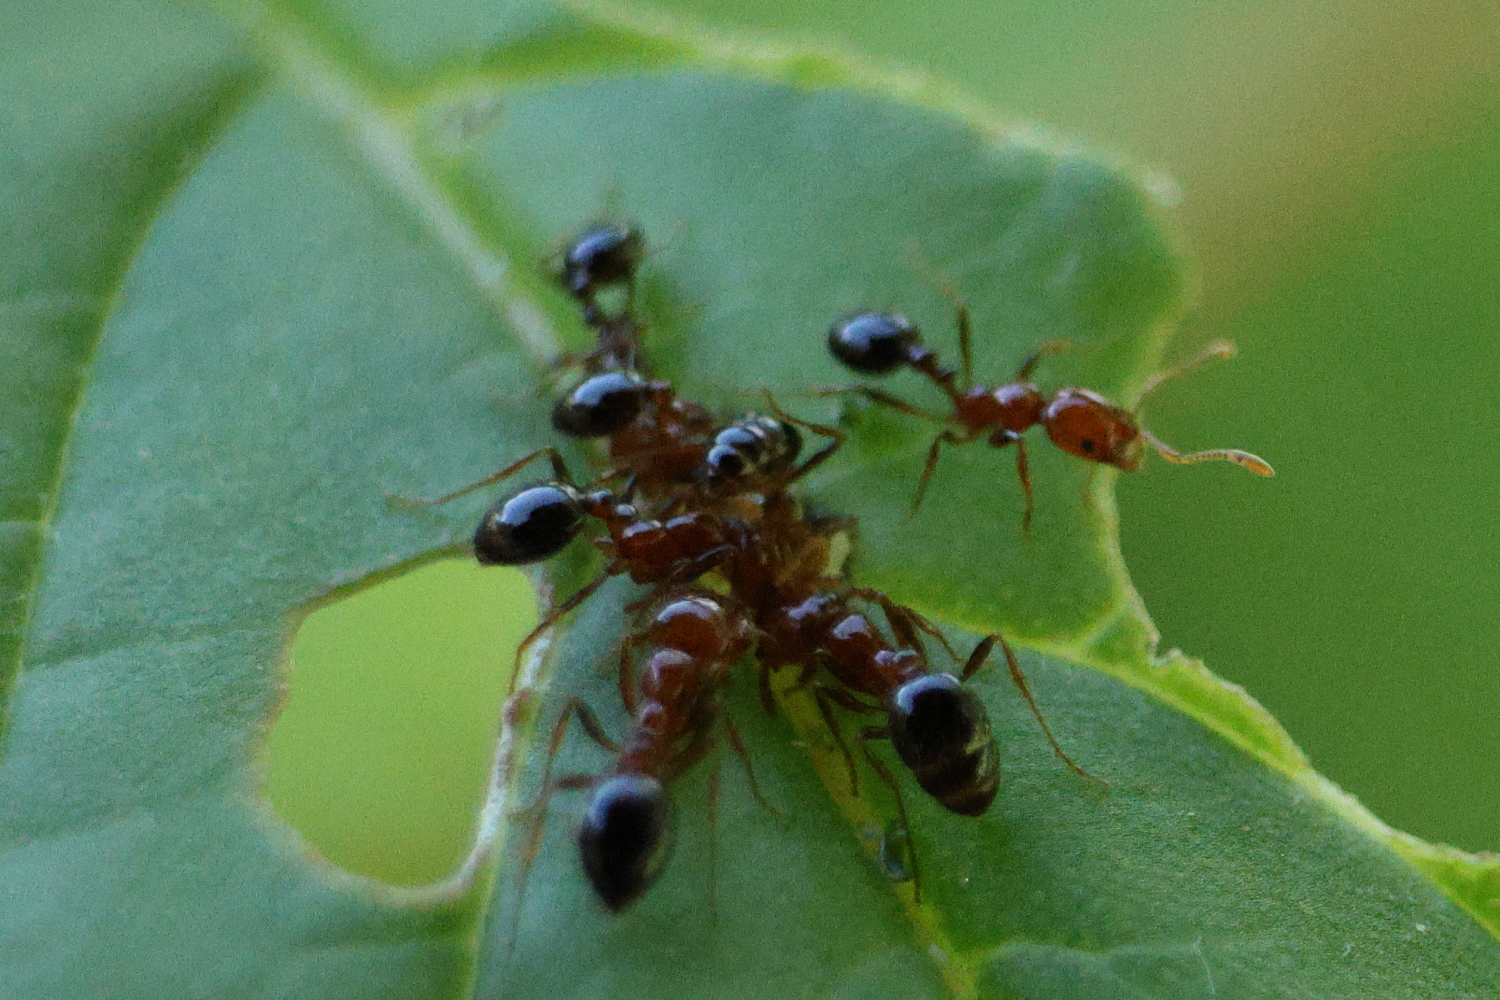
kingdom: Animalia
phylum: Arthropoda
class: Insecta
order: Hymenoptera
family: Formicidae
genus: Solenopsis
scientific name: Solenopsis xyloni
